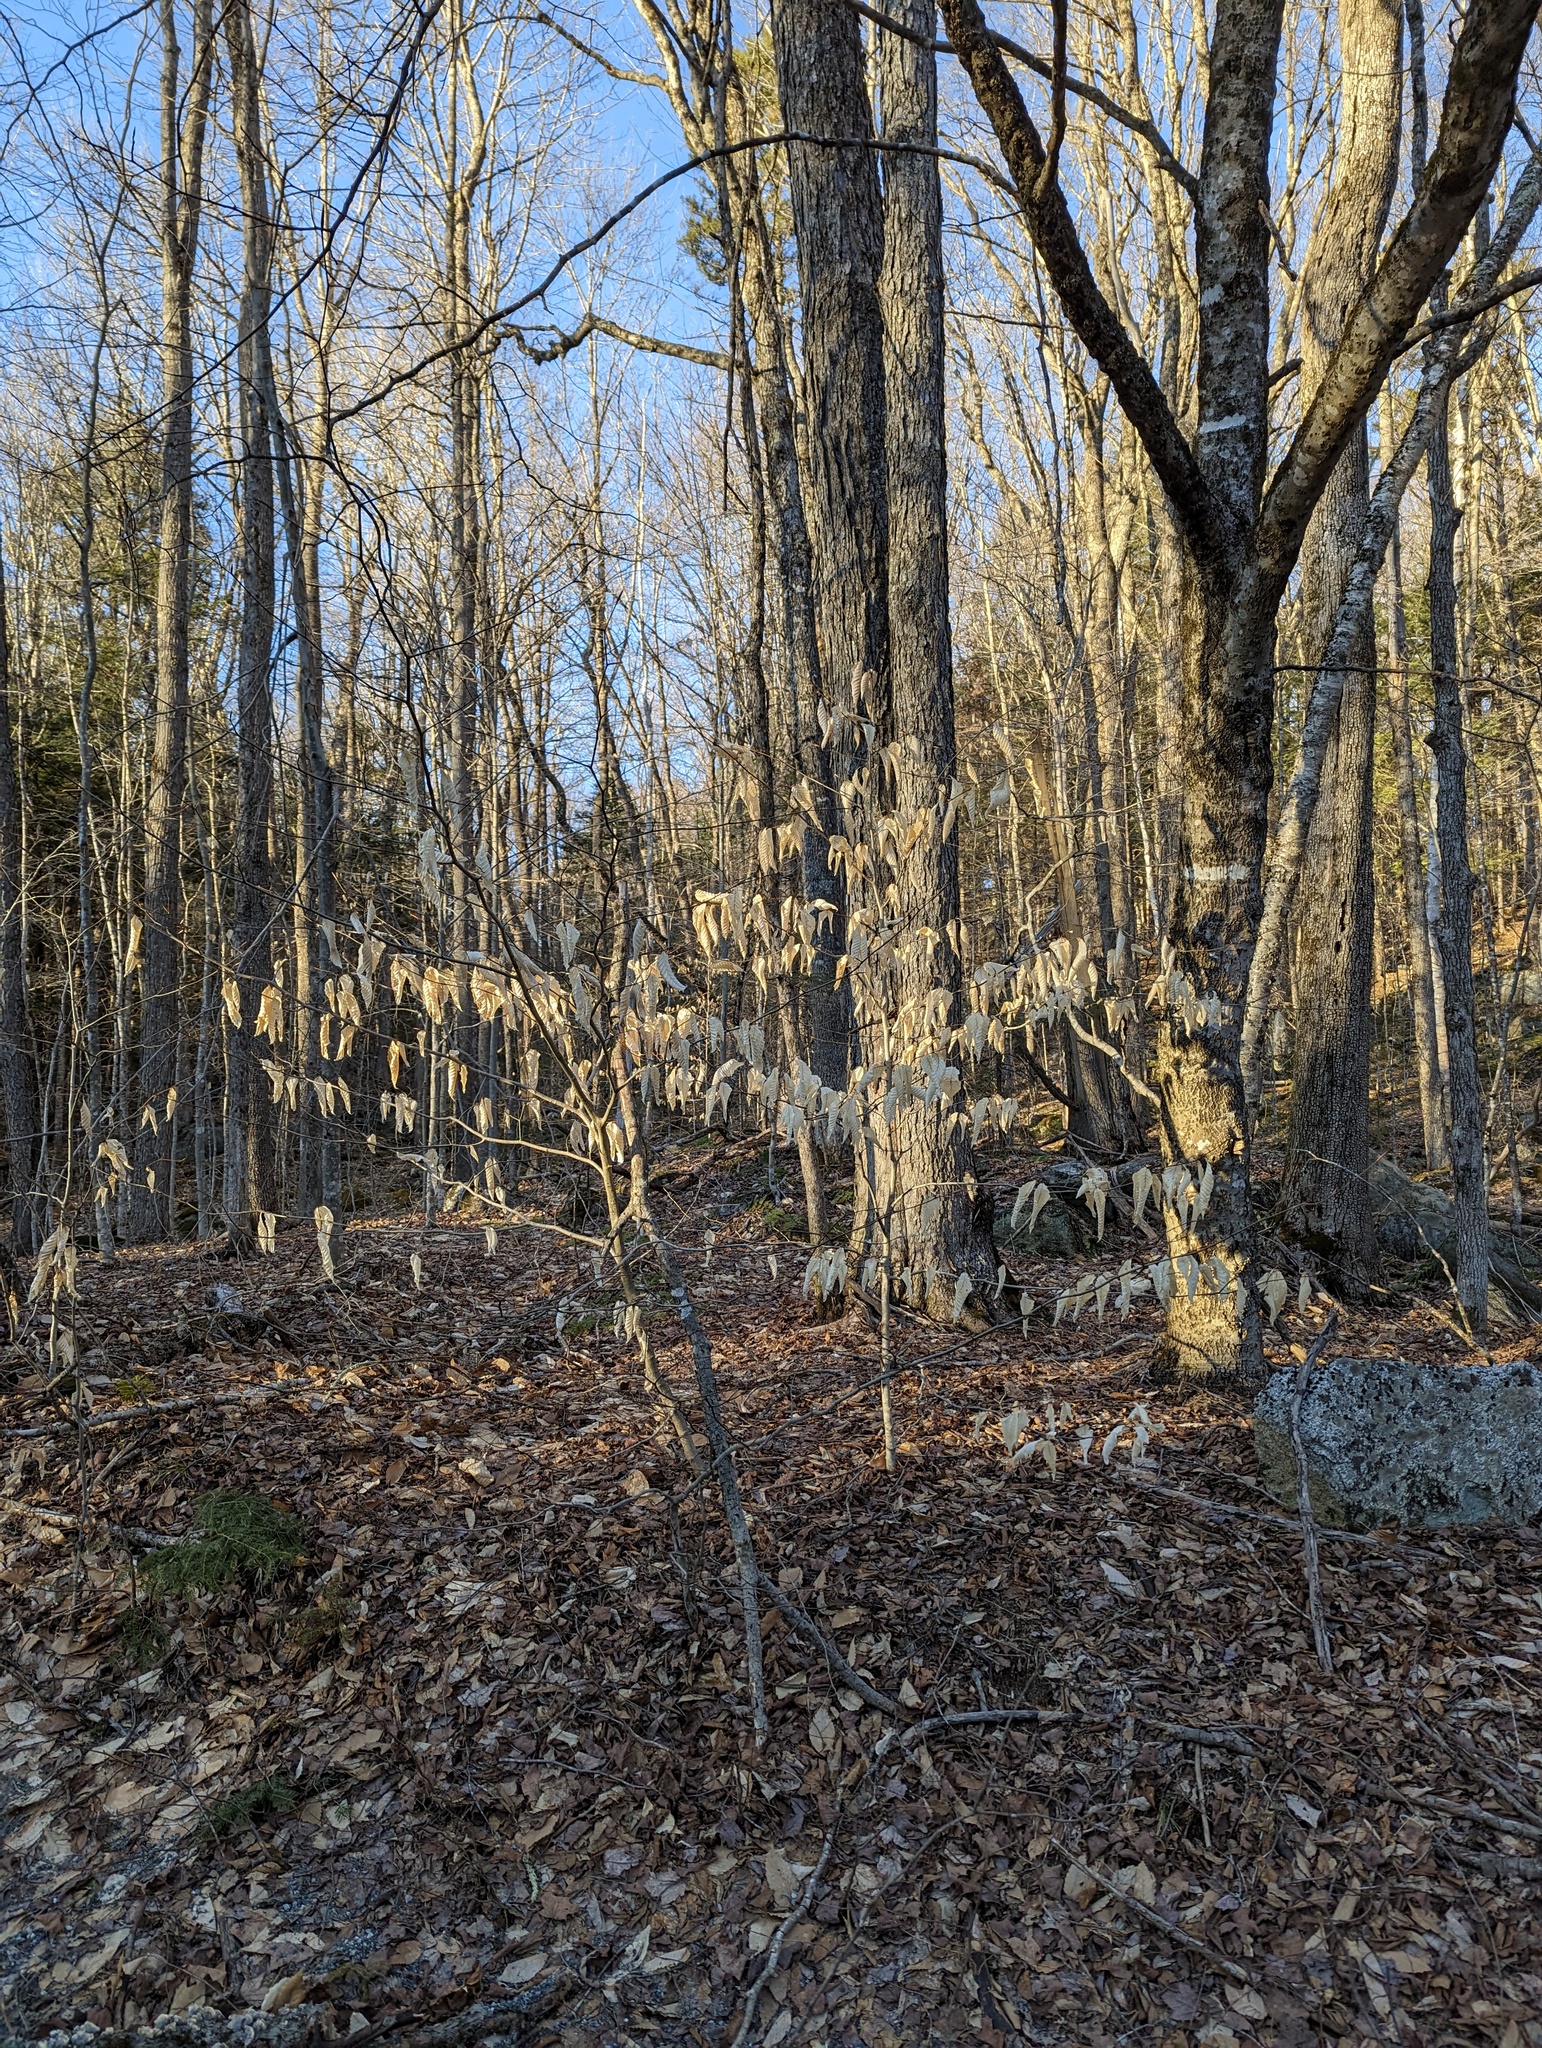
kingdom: Plantae
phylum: Tracheophyta
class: Magnoliopsida
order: Fagales
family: Fagaceae
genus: Fagus
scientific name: Fagus grandifolia
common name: American beech
